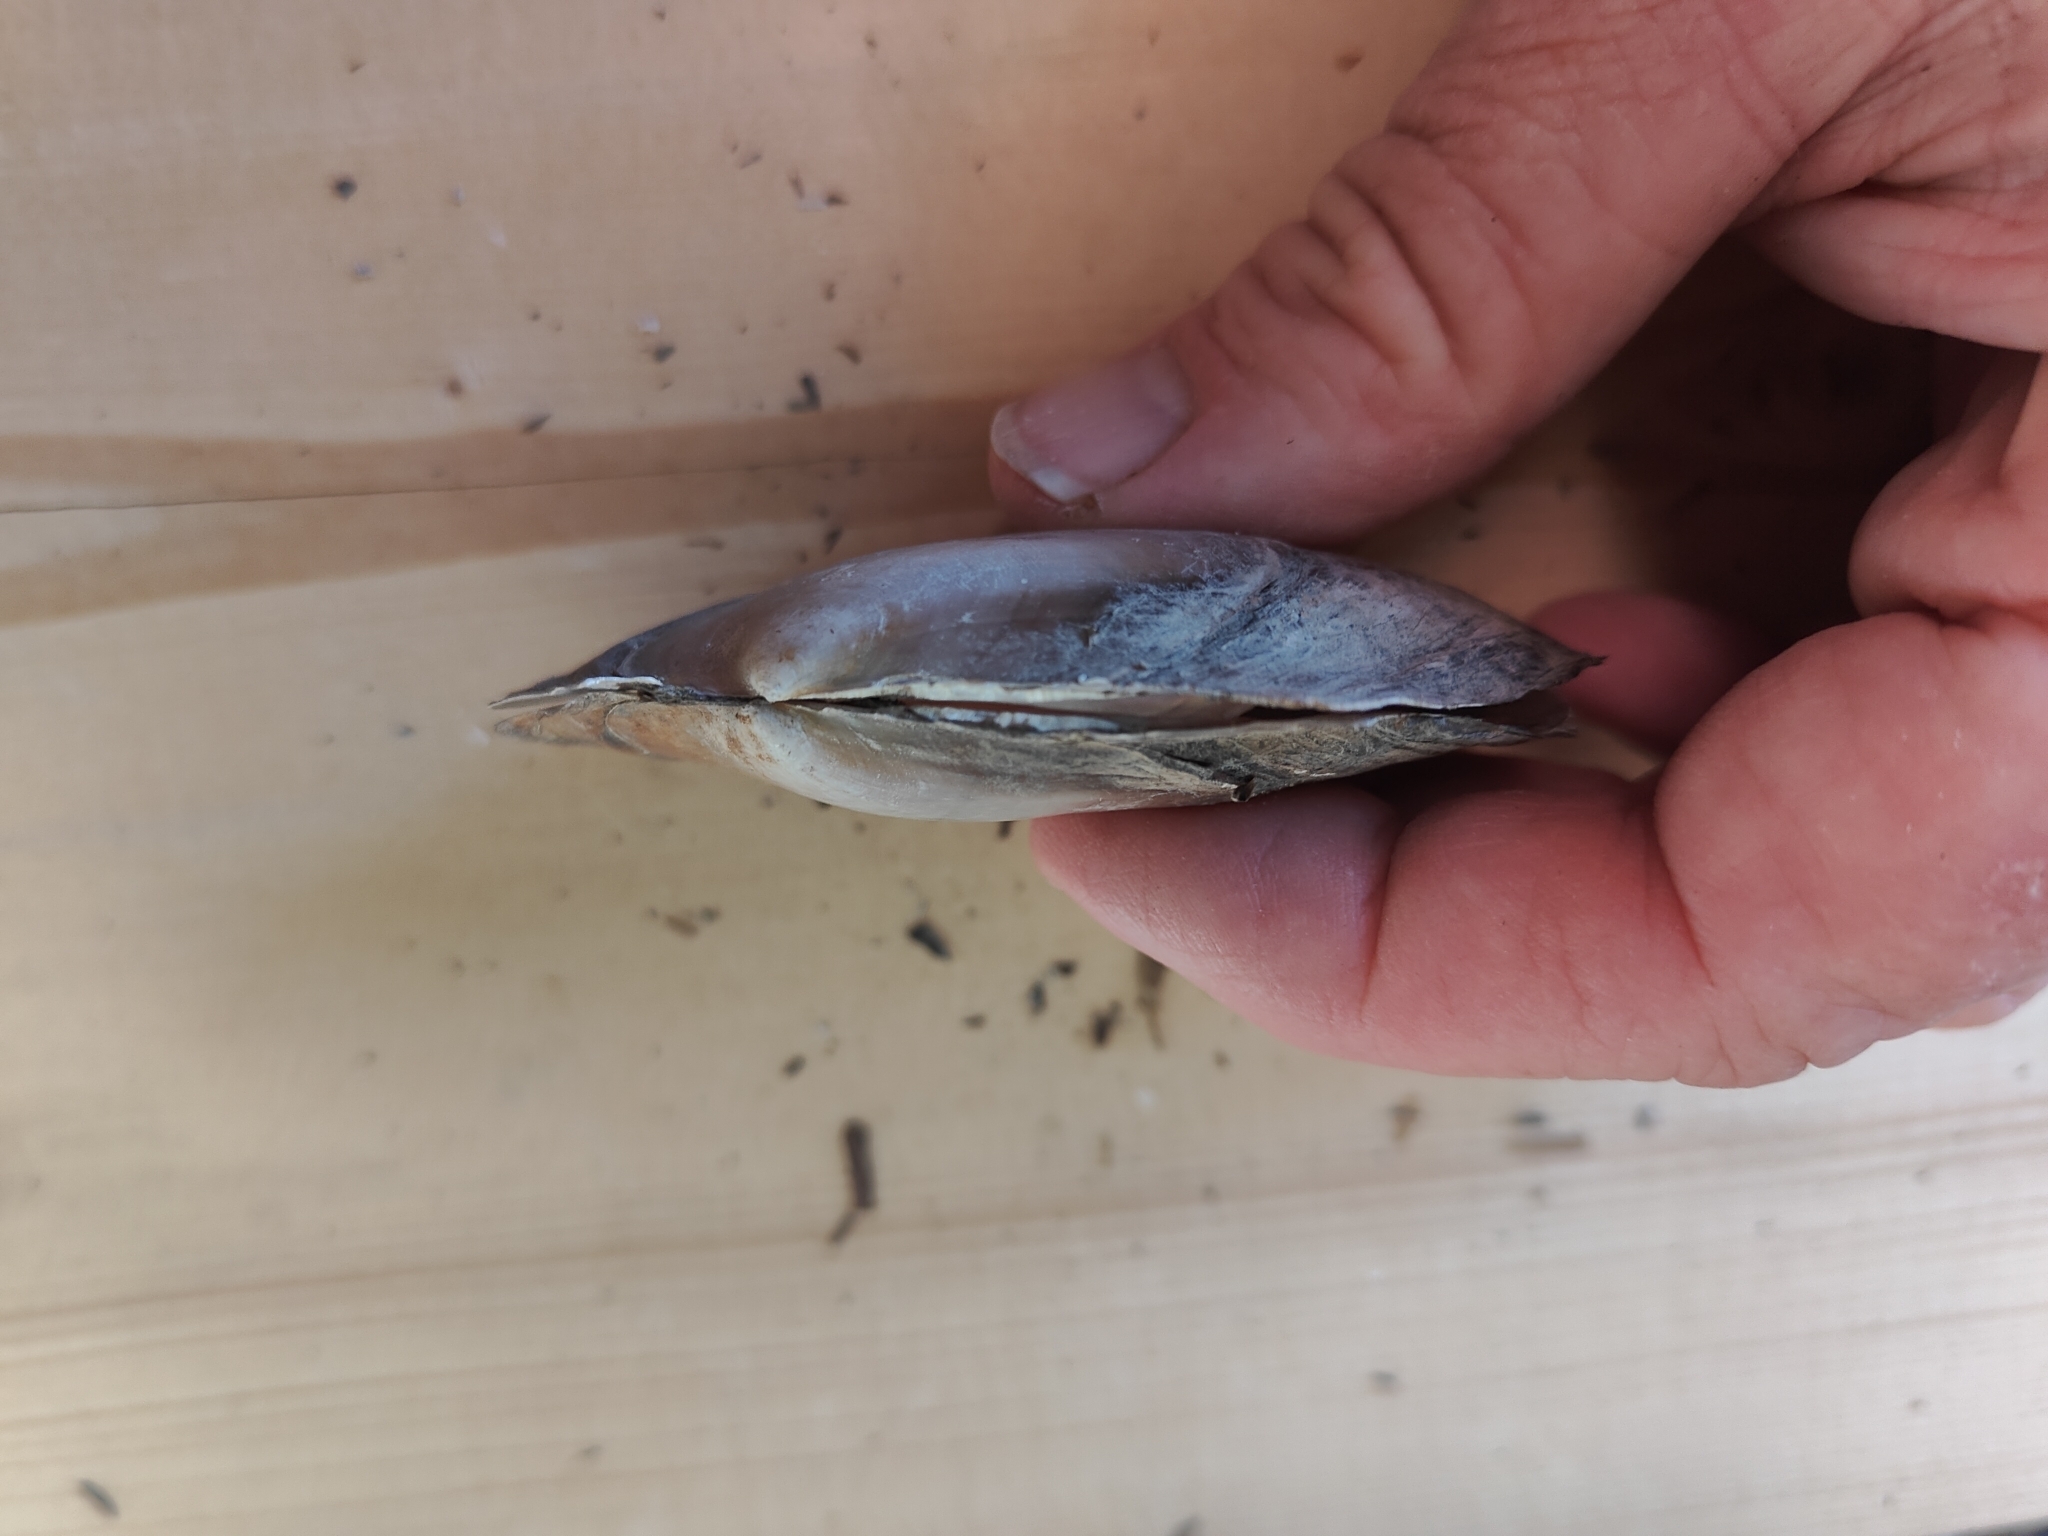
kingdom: Animalia
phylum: Mollusca
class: Bivalvia
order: Unionida
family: Unionidae
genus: Potamilus
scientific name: Potamilus ohiensis
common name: Pink papershell
